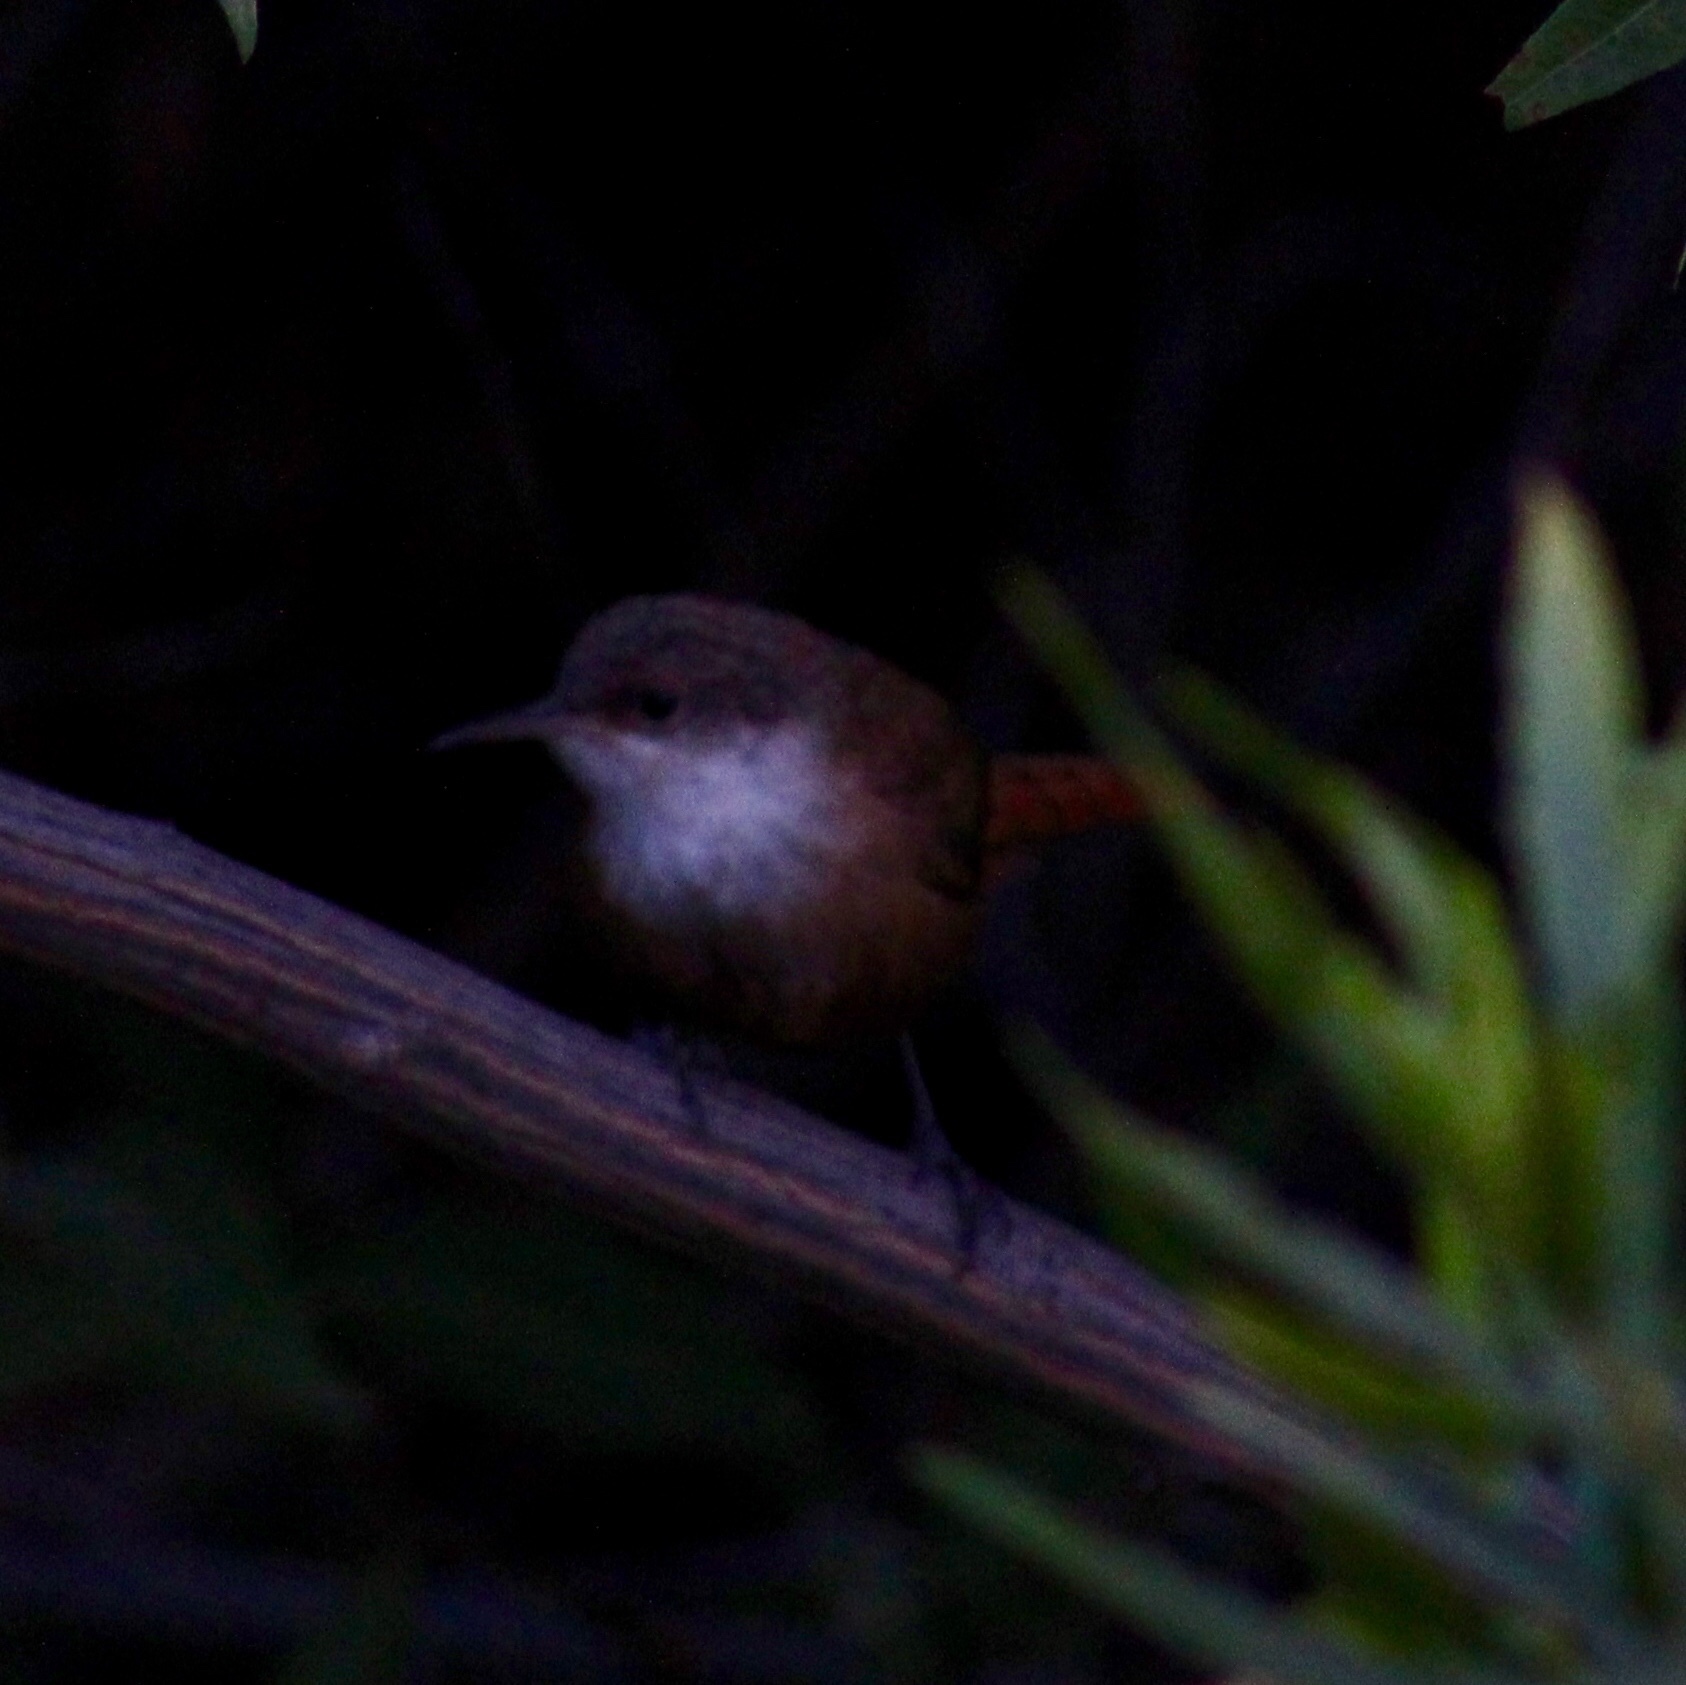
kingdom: Animalia
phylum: Chordata
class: Aves
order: Passeriformes
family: Troglodytidae
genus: Catherpes
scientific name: Catherpes mexicanus
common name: Canyon wren
